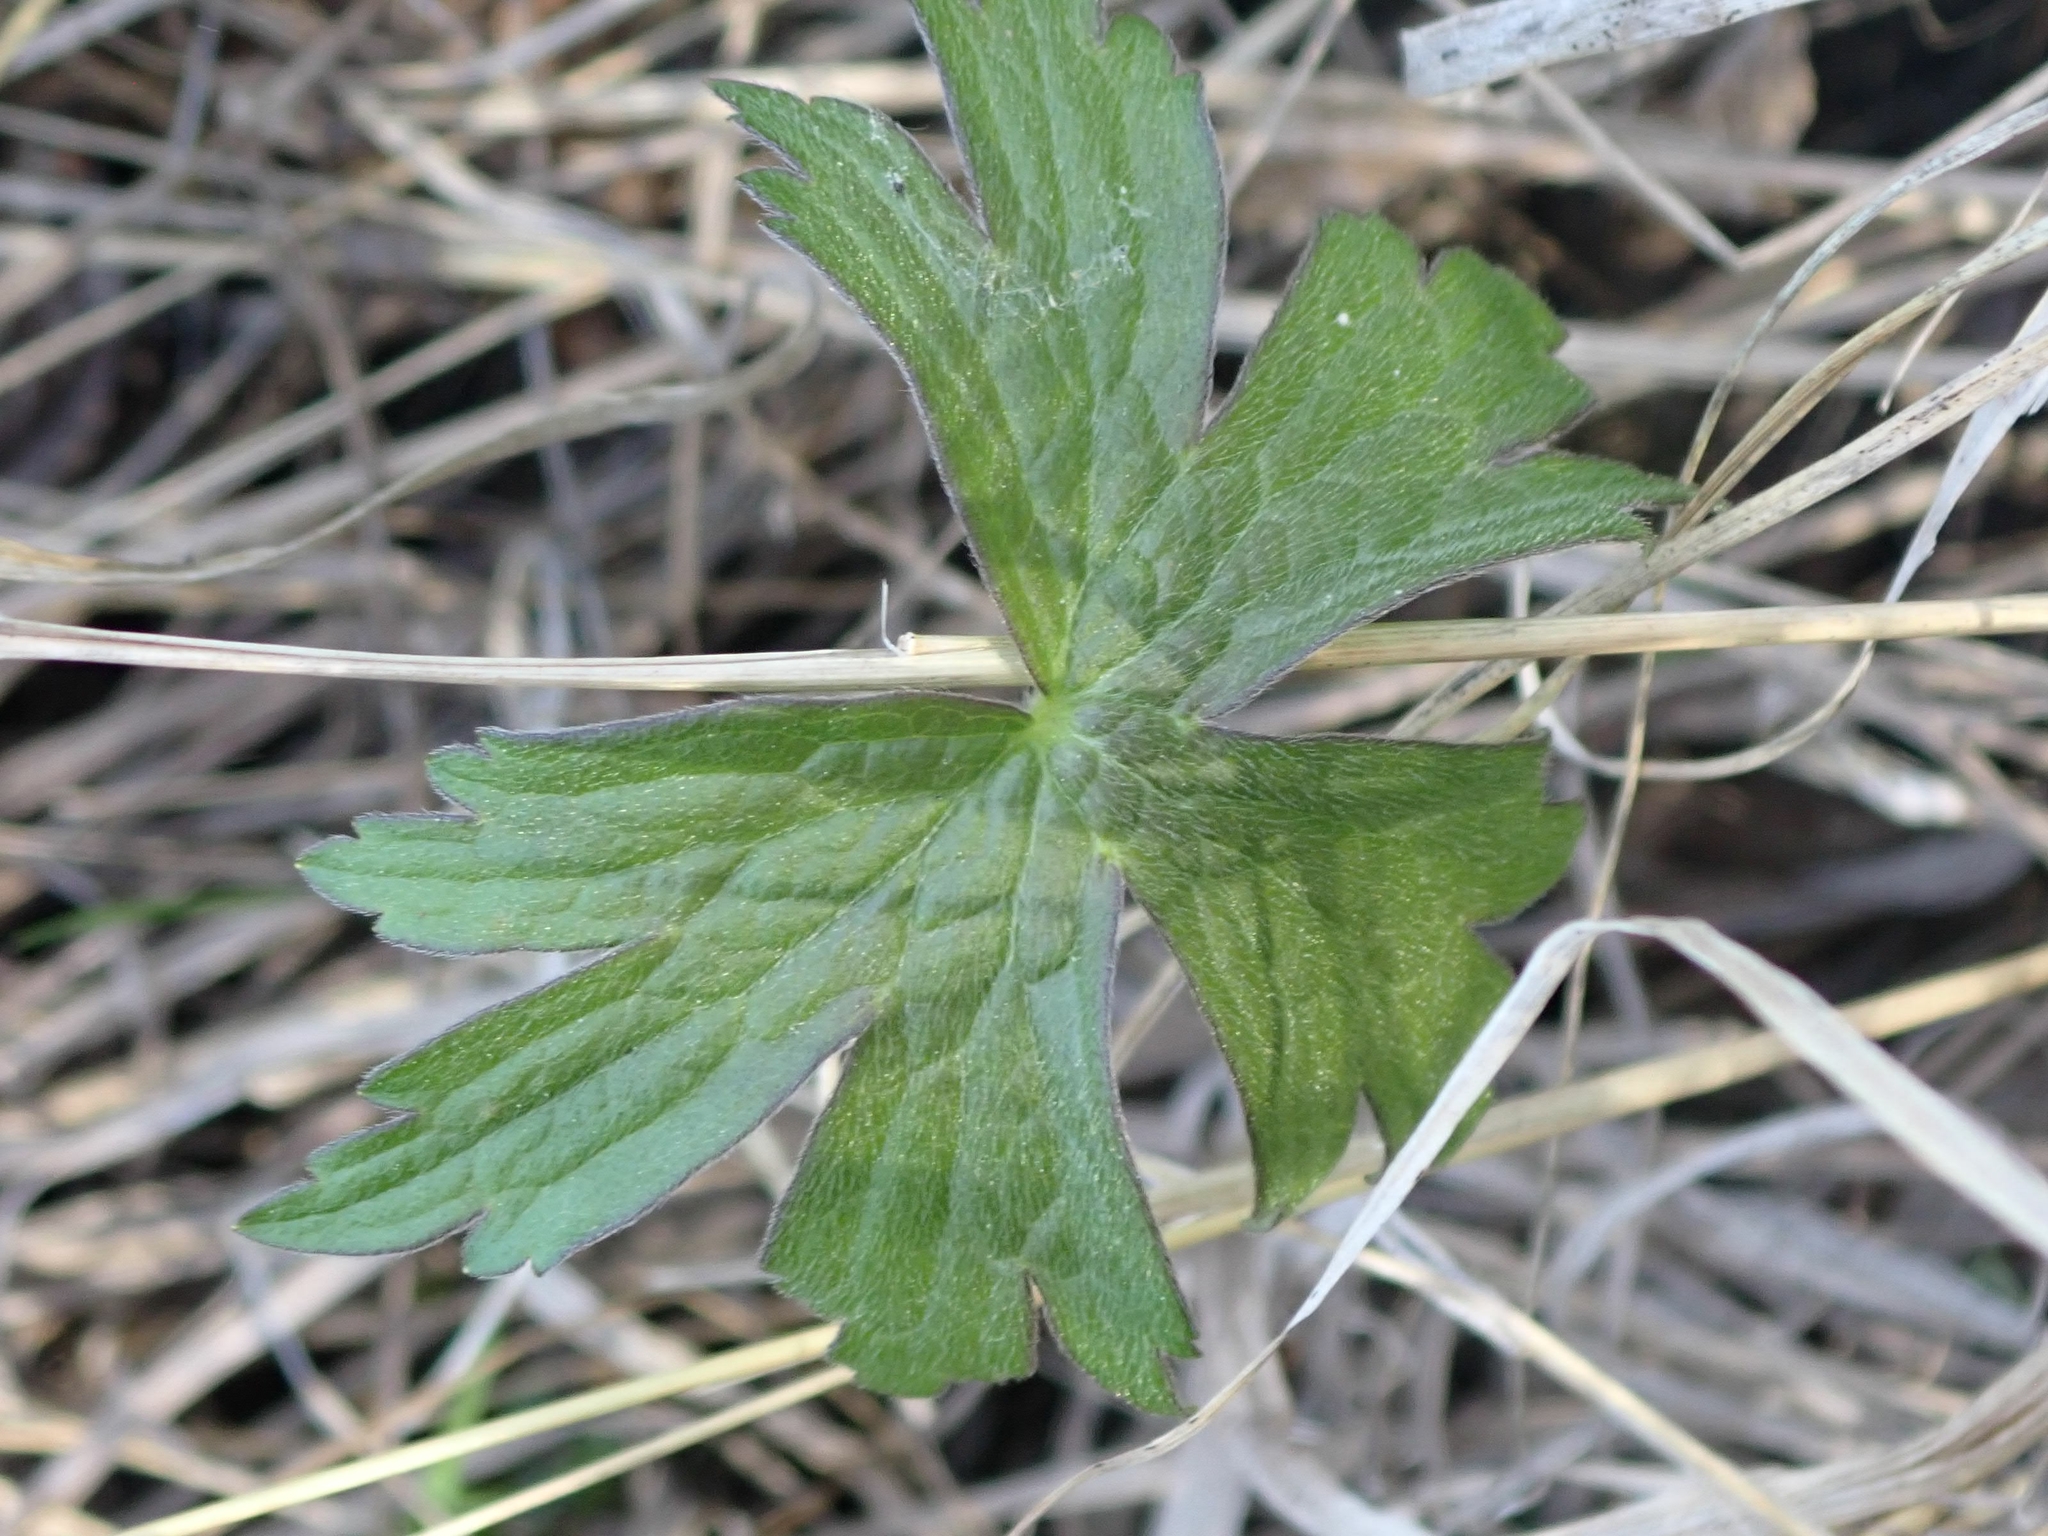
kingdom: Plantae
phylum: Tracheophyta
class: Magnoliopsida
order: Ranunculales
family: Ranunculaceae
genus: Anemonastrum
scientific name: Anemonastrum canadense
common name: Canada anemone
